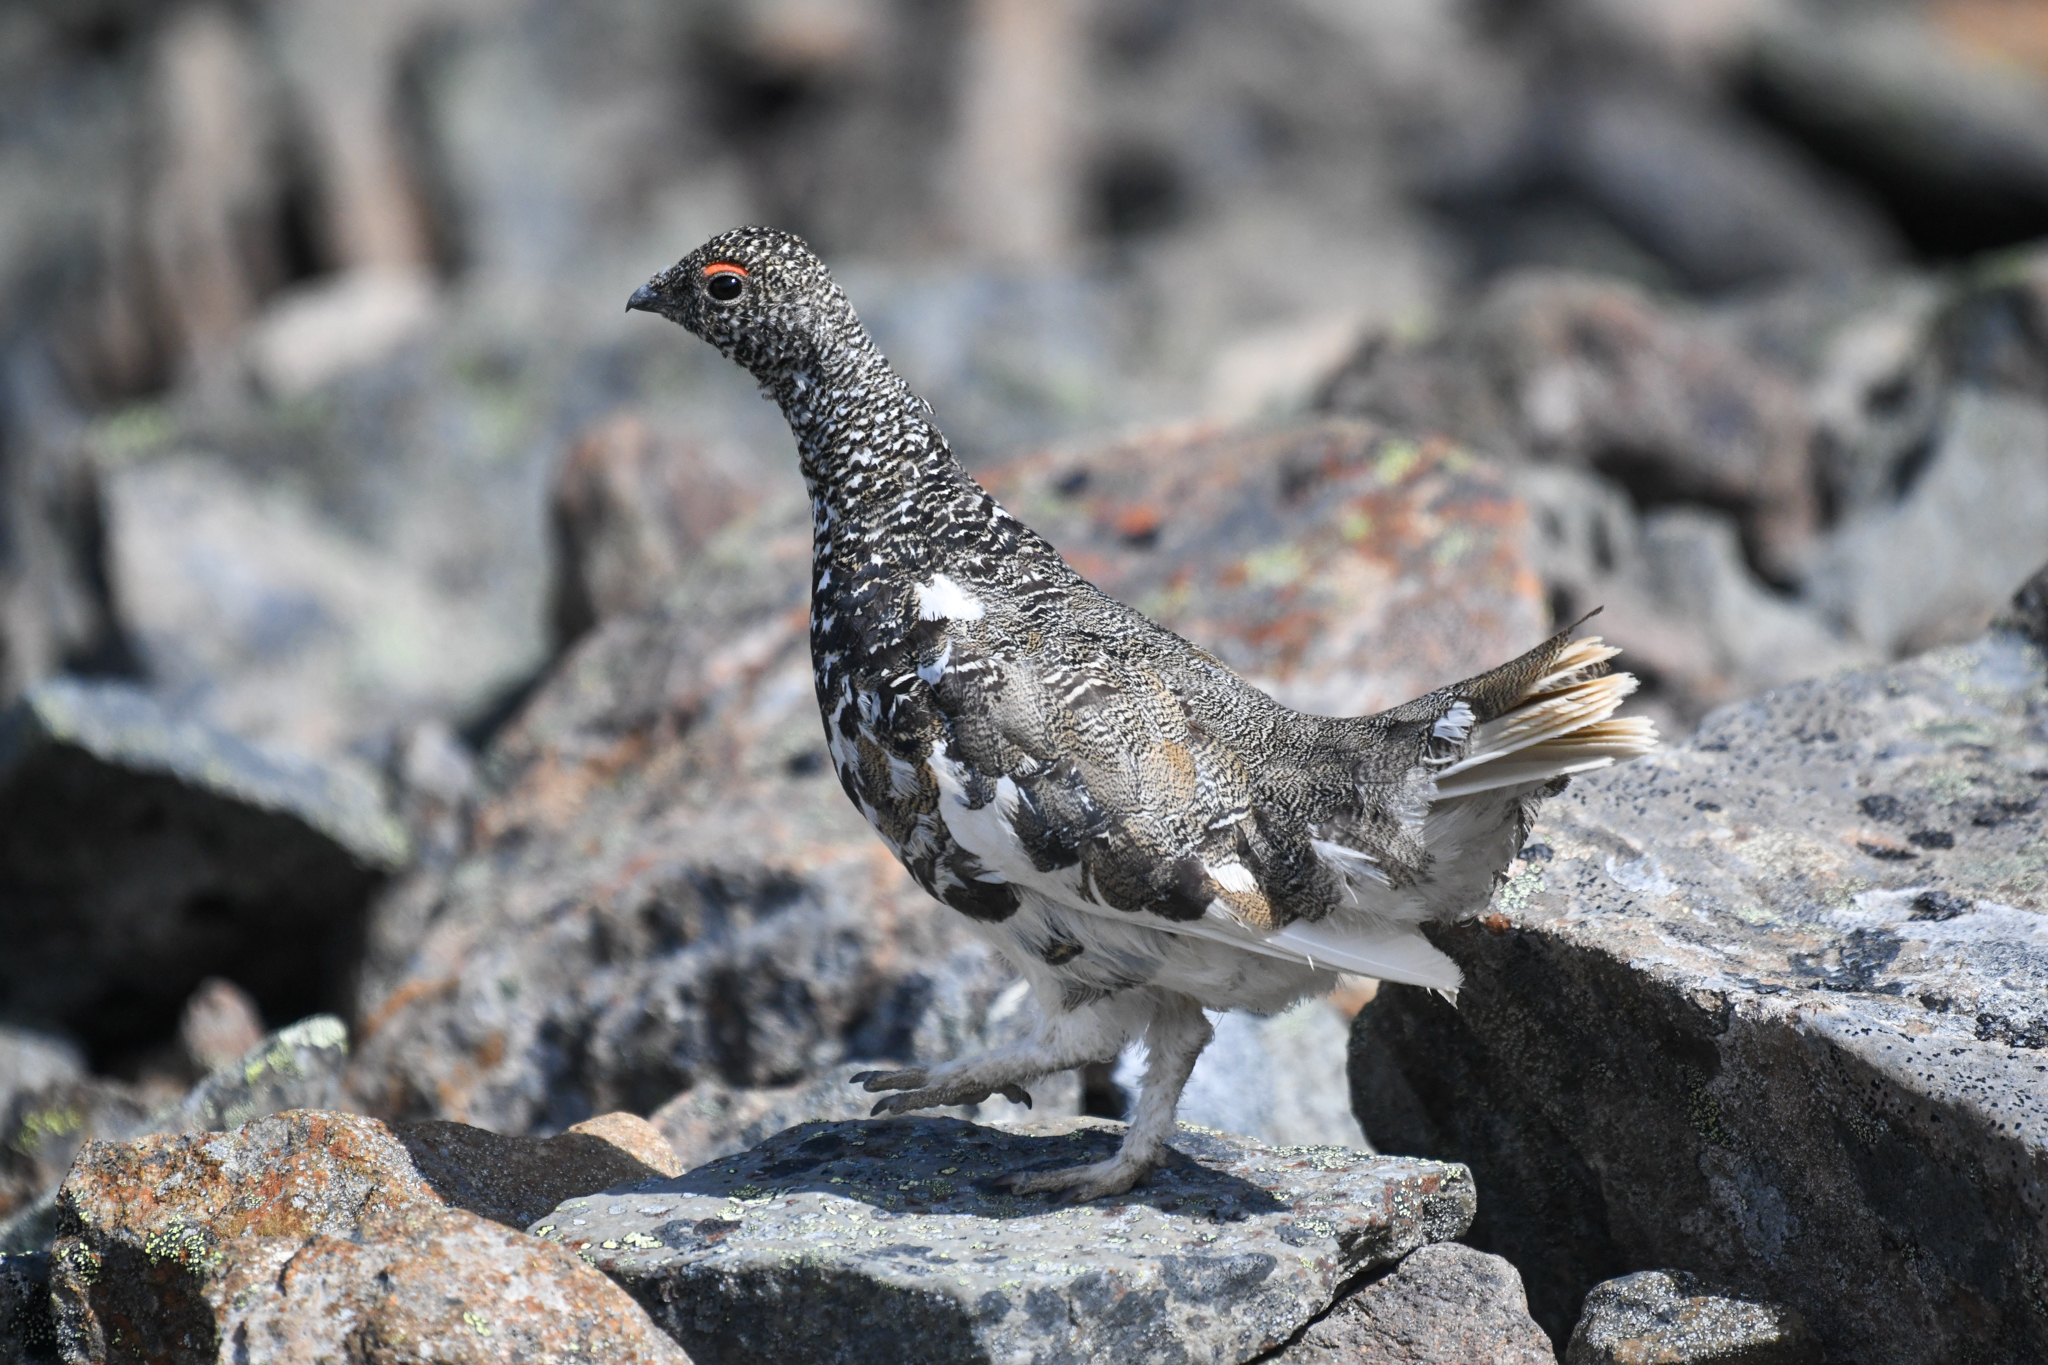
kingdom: Animalia
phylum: Chordata
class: Aves
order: Galliformes
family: Phasianidae
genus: Lagopus
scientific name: Lagopus leucura
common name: White-tailed ptarmigan
